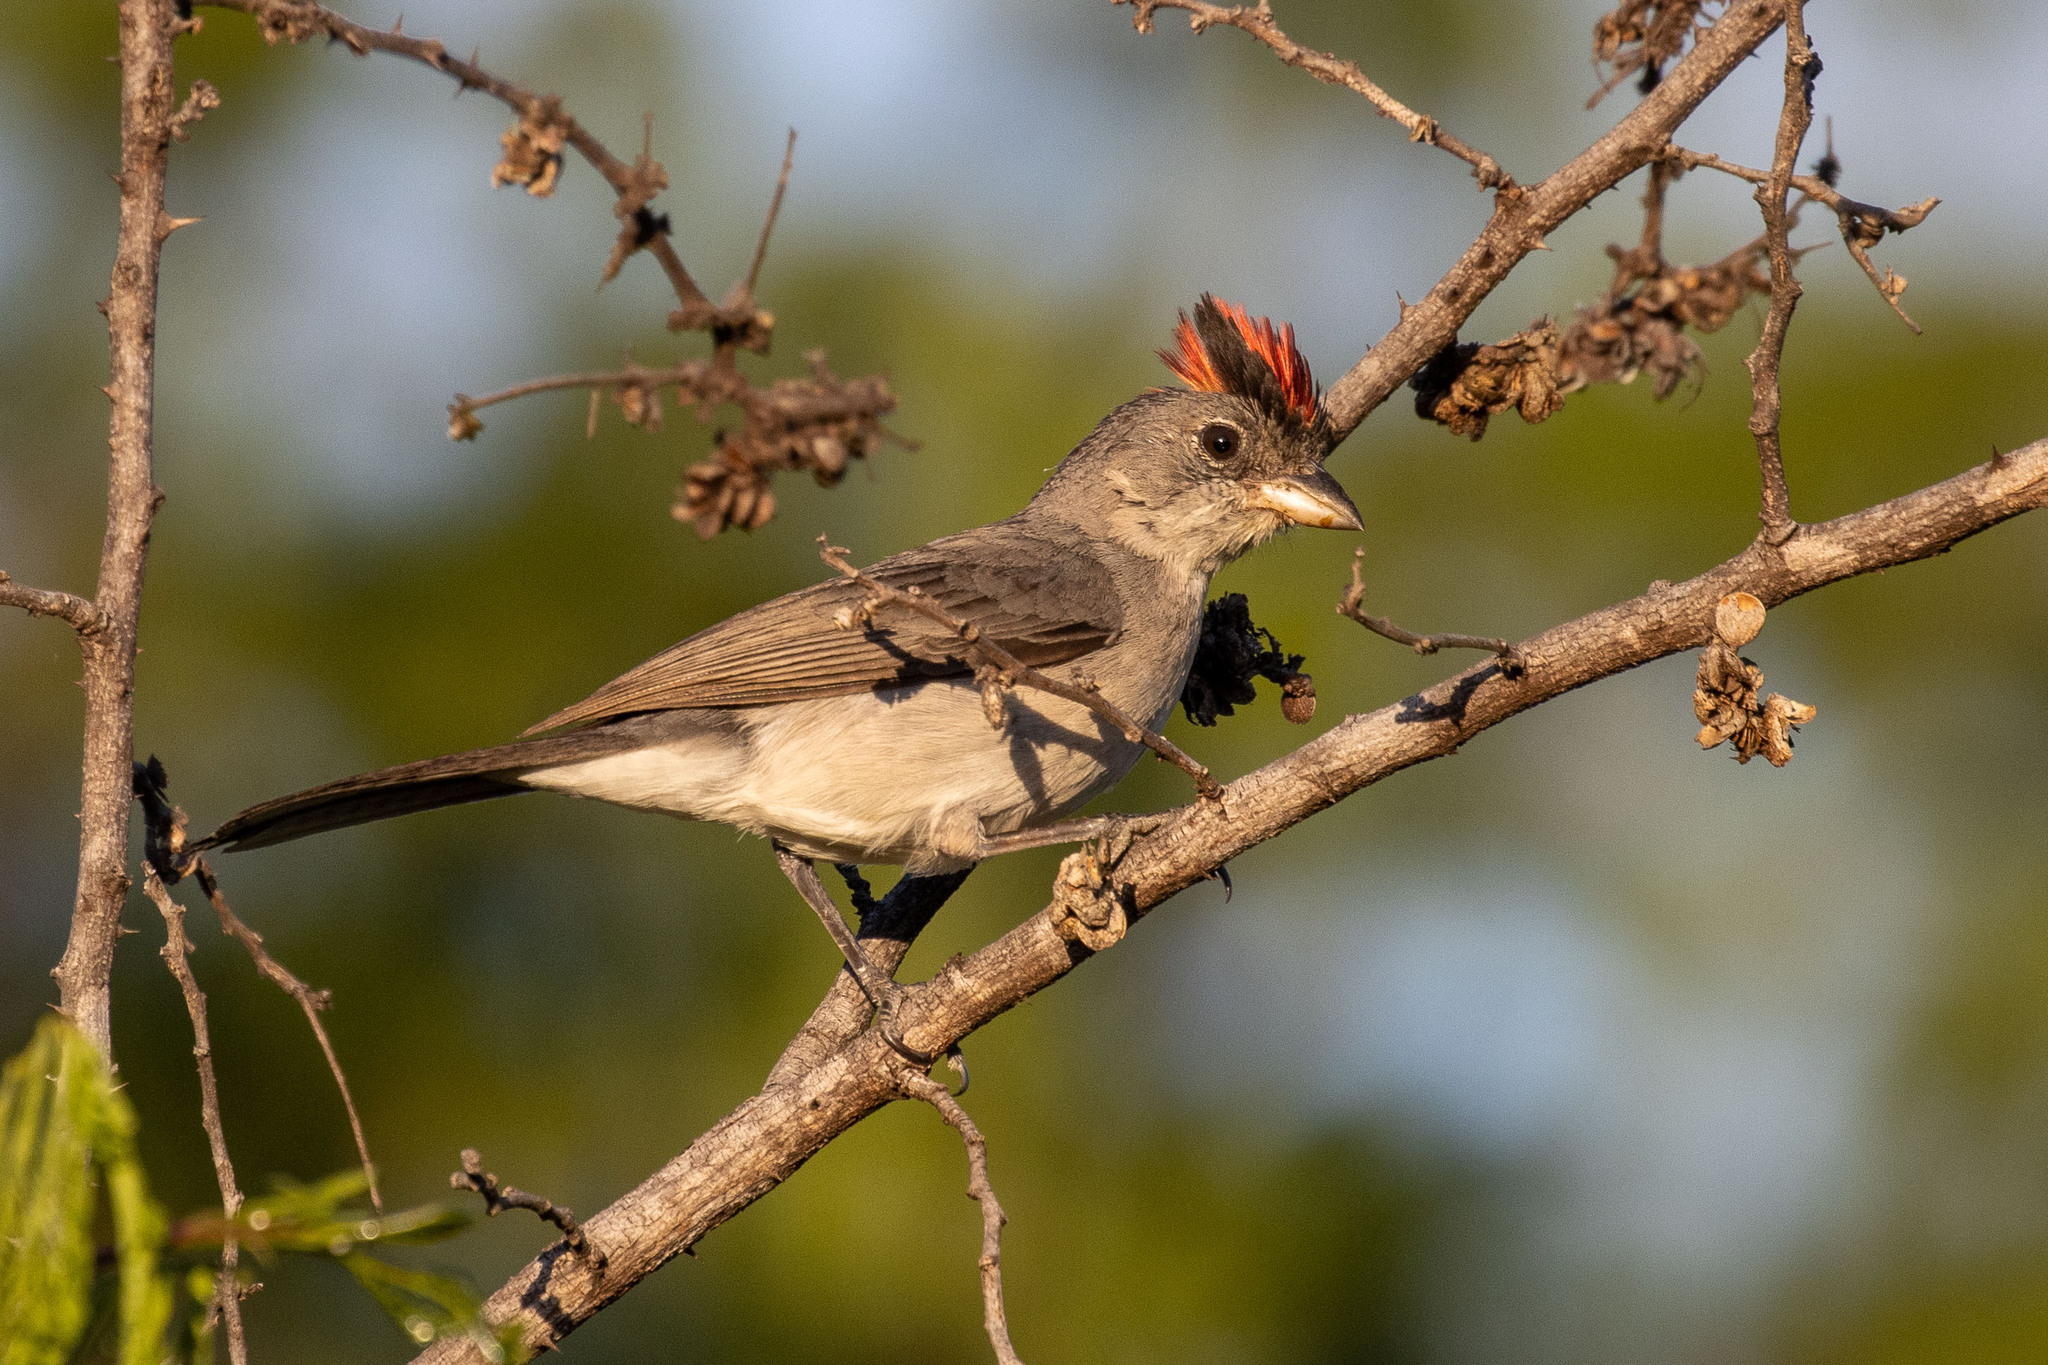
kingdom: Animalia
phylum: Chordata
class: Aves
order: Passeriformes
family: Thraupidae
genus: Coryphospingus
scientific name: Coryphospingus pileatus
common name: Grey pileated finch
